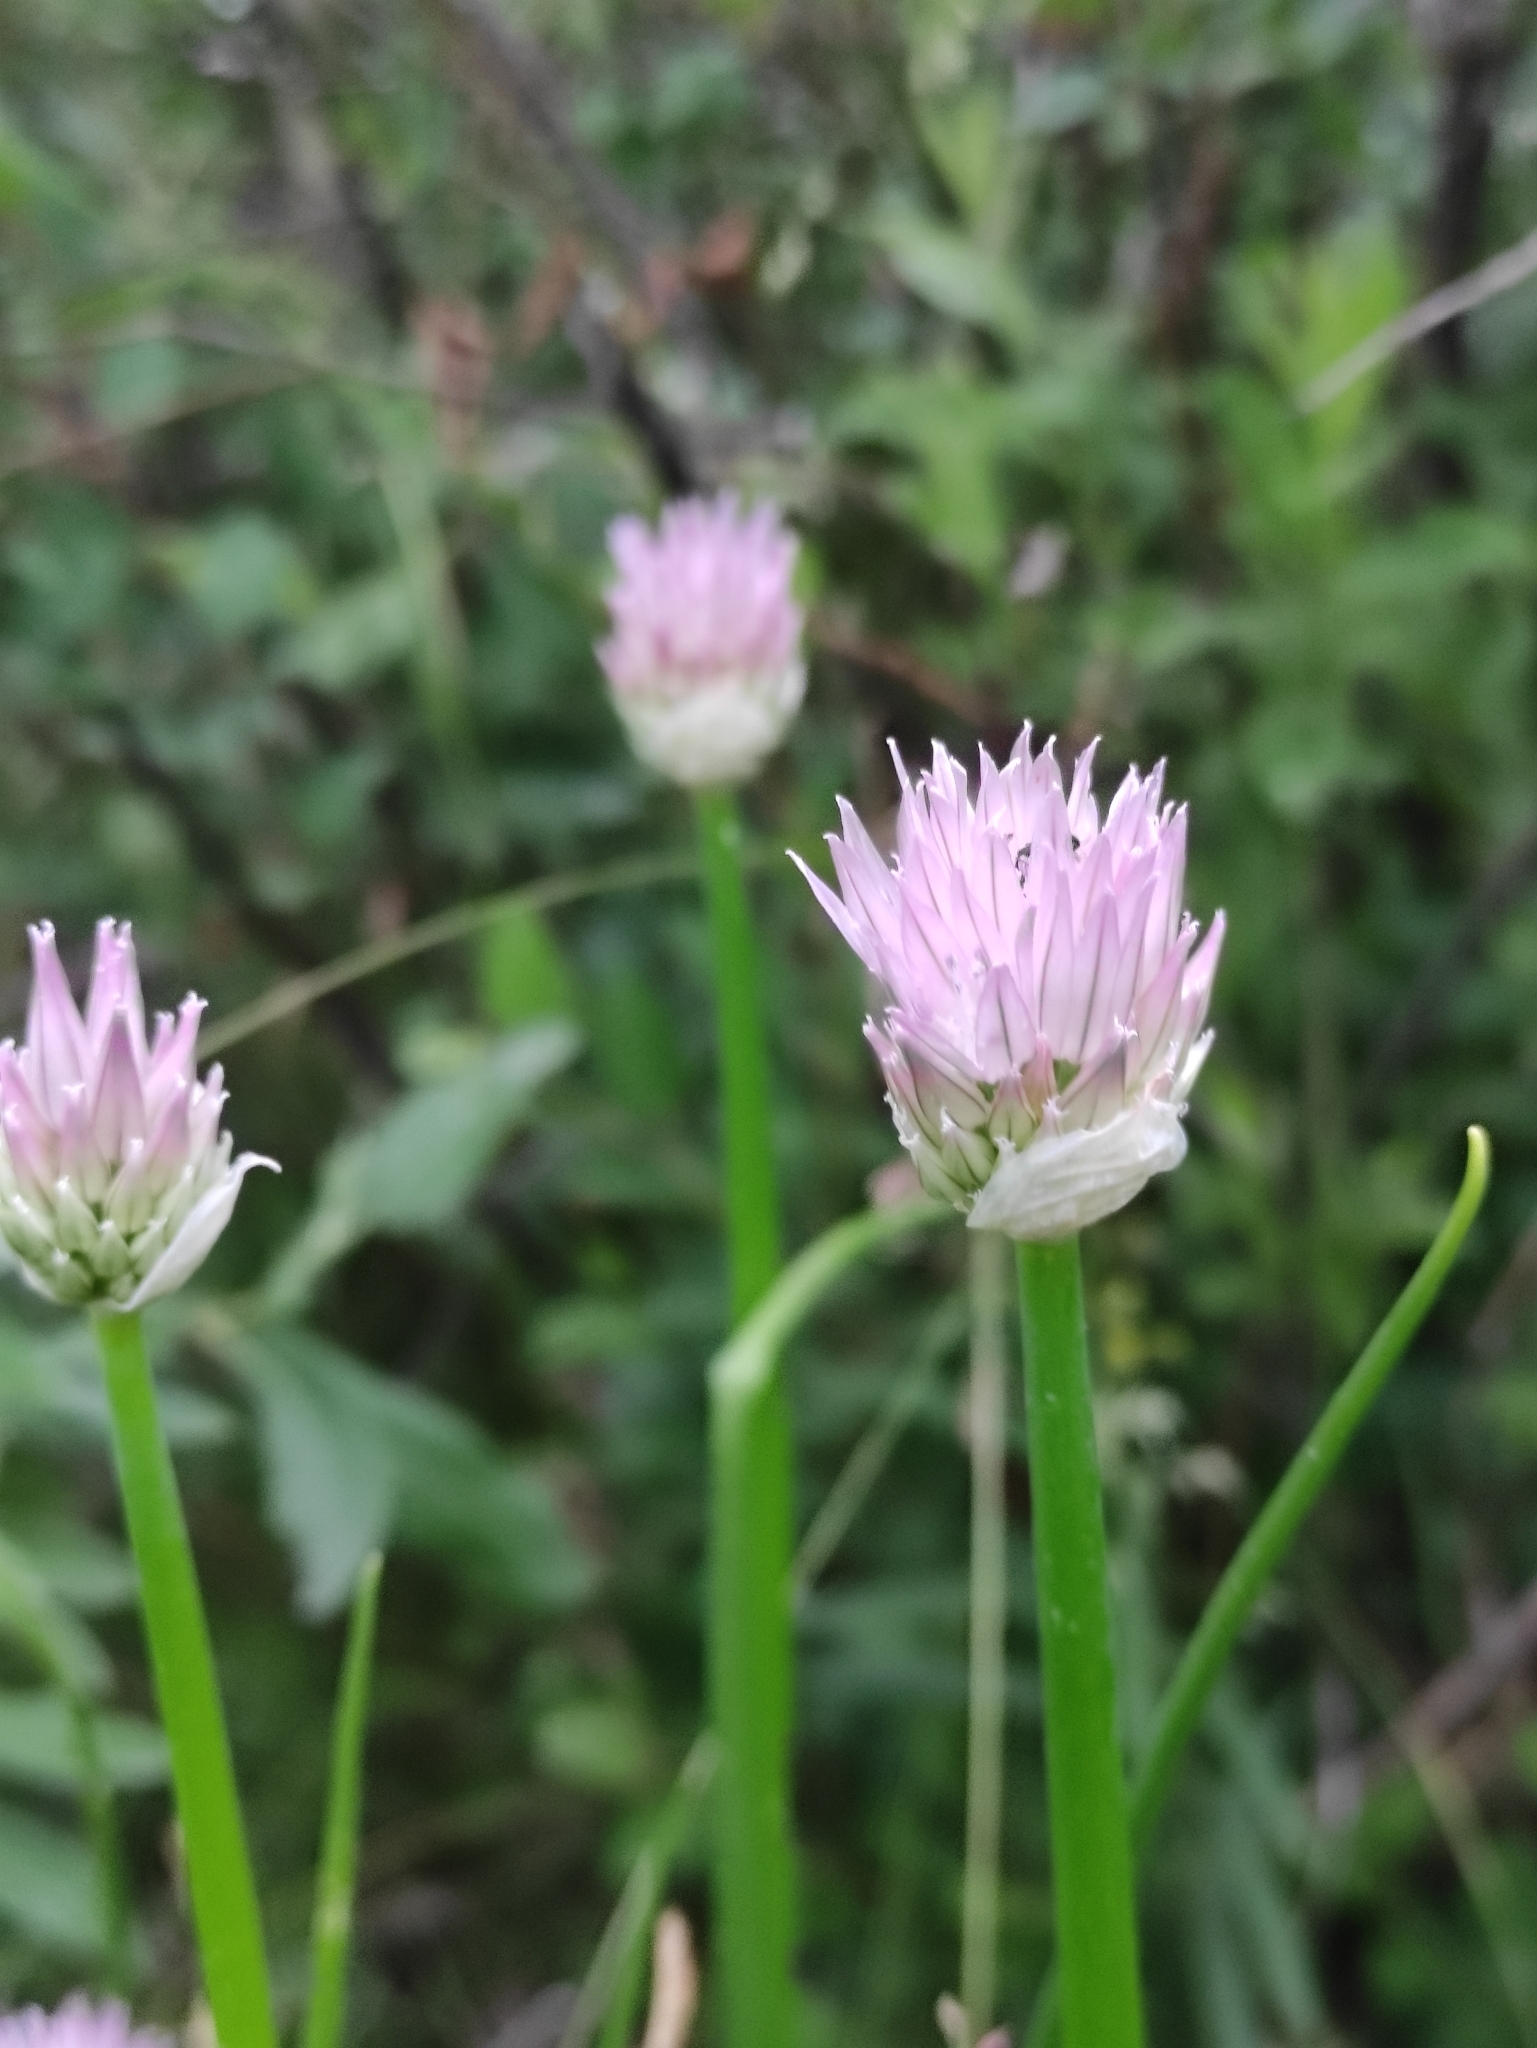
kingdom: Plantae
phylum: Tracheophyta
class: Liliopsida
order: Asparagales
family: Amaryllidaceae
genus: Allium
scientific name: Allium schoenoprasum
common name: Chives
